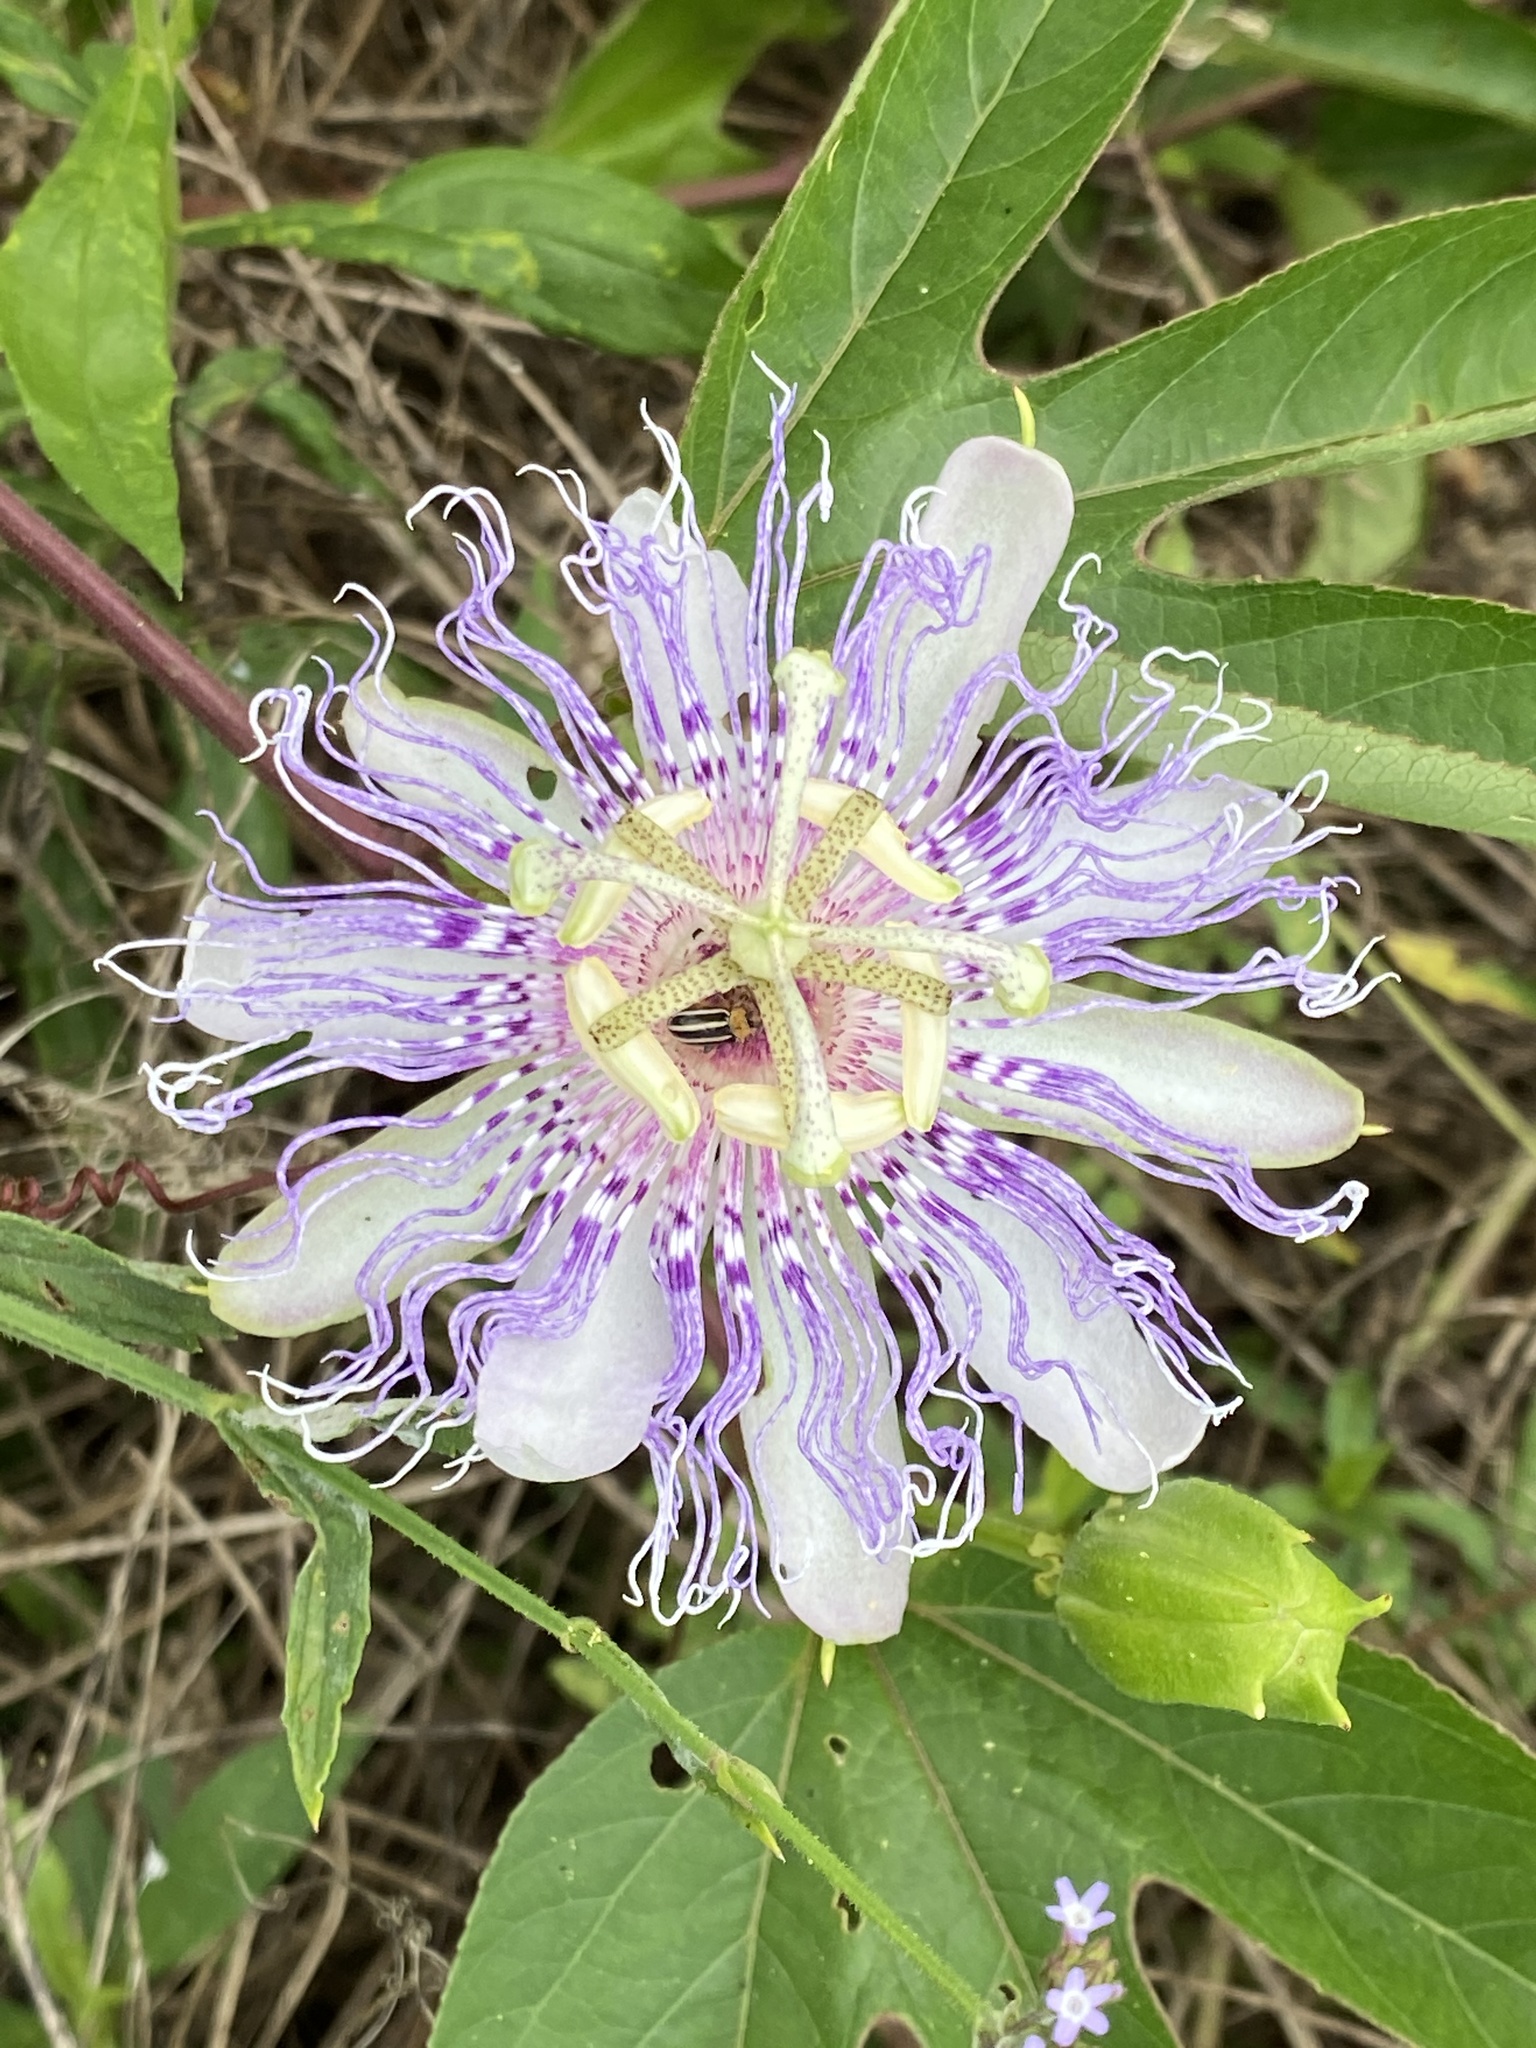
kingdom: Plantae
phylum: Tracheophyta
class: Magnoliopsida
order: Malpighiales
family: Passifloraceae
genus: Passiflora
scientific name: Passiflora incarnata
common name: Apricot-vine
